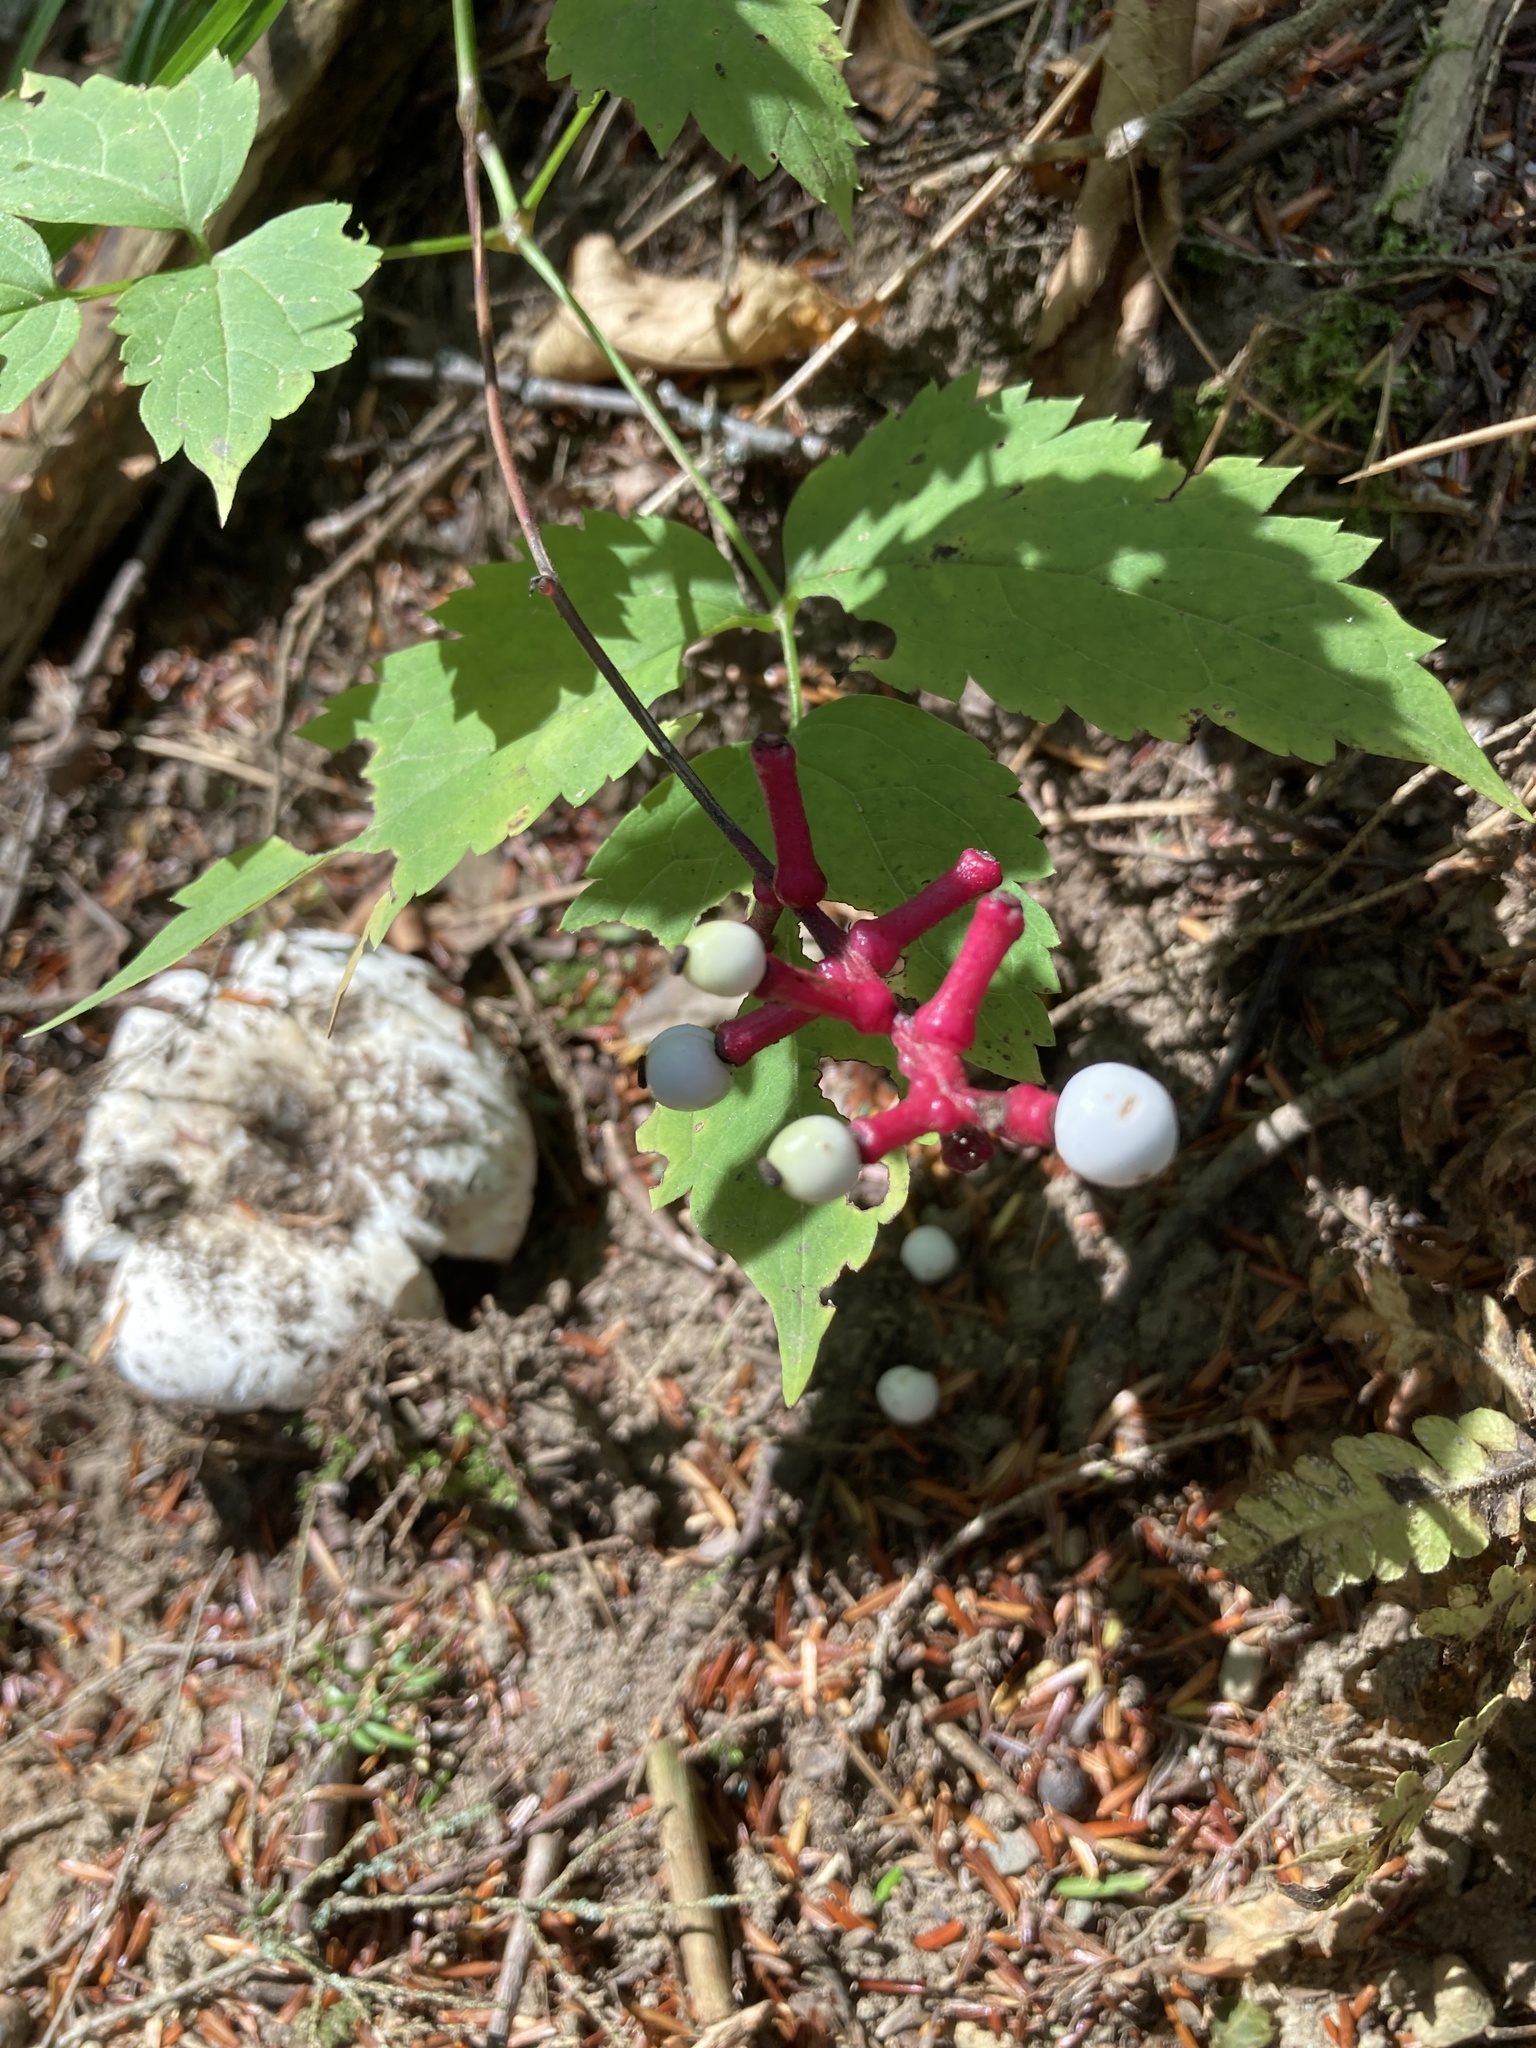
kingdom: Plantae
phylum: Tracheophyta
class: Magnoliopsida
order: Ranunculales
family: Ranunculaceae
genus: Actaea
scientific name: Actaea pachypoda
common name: Doll's-eyes
